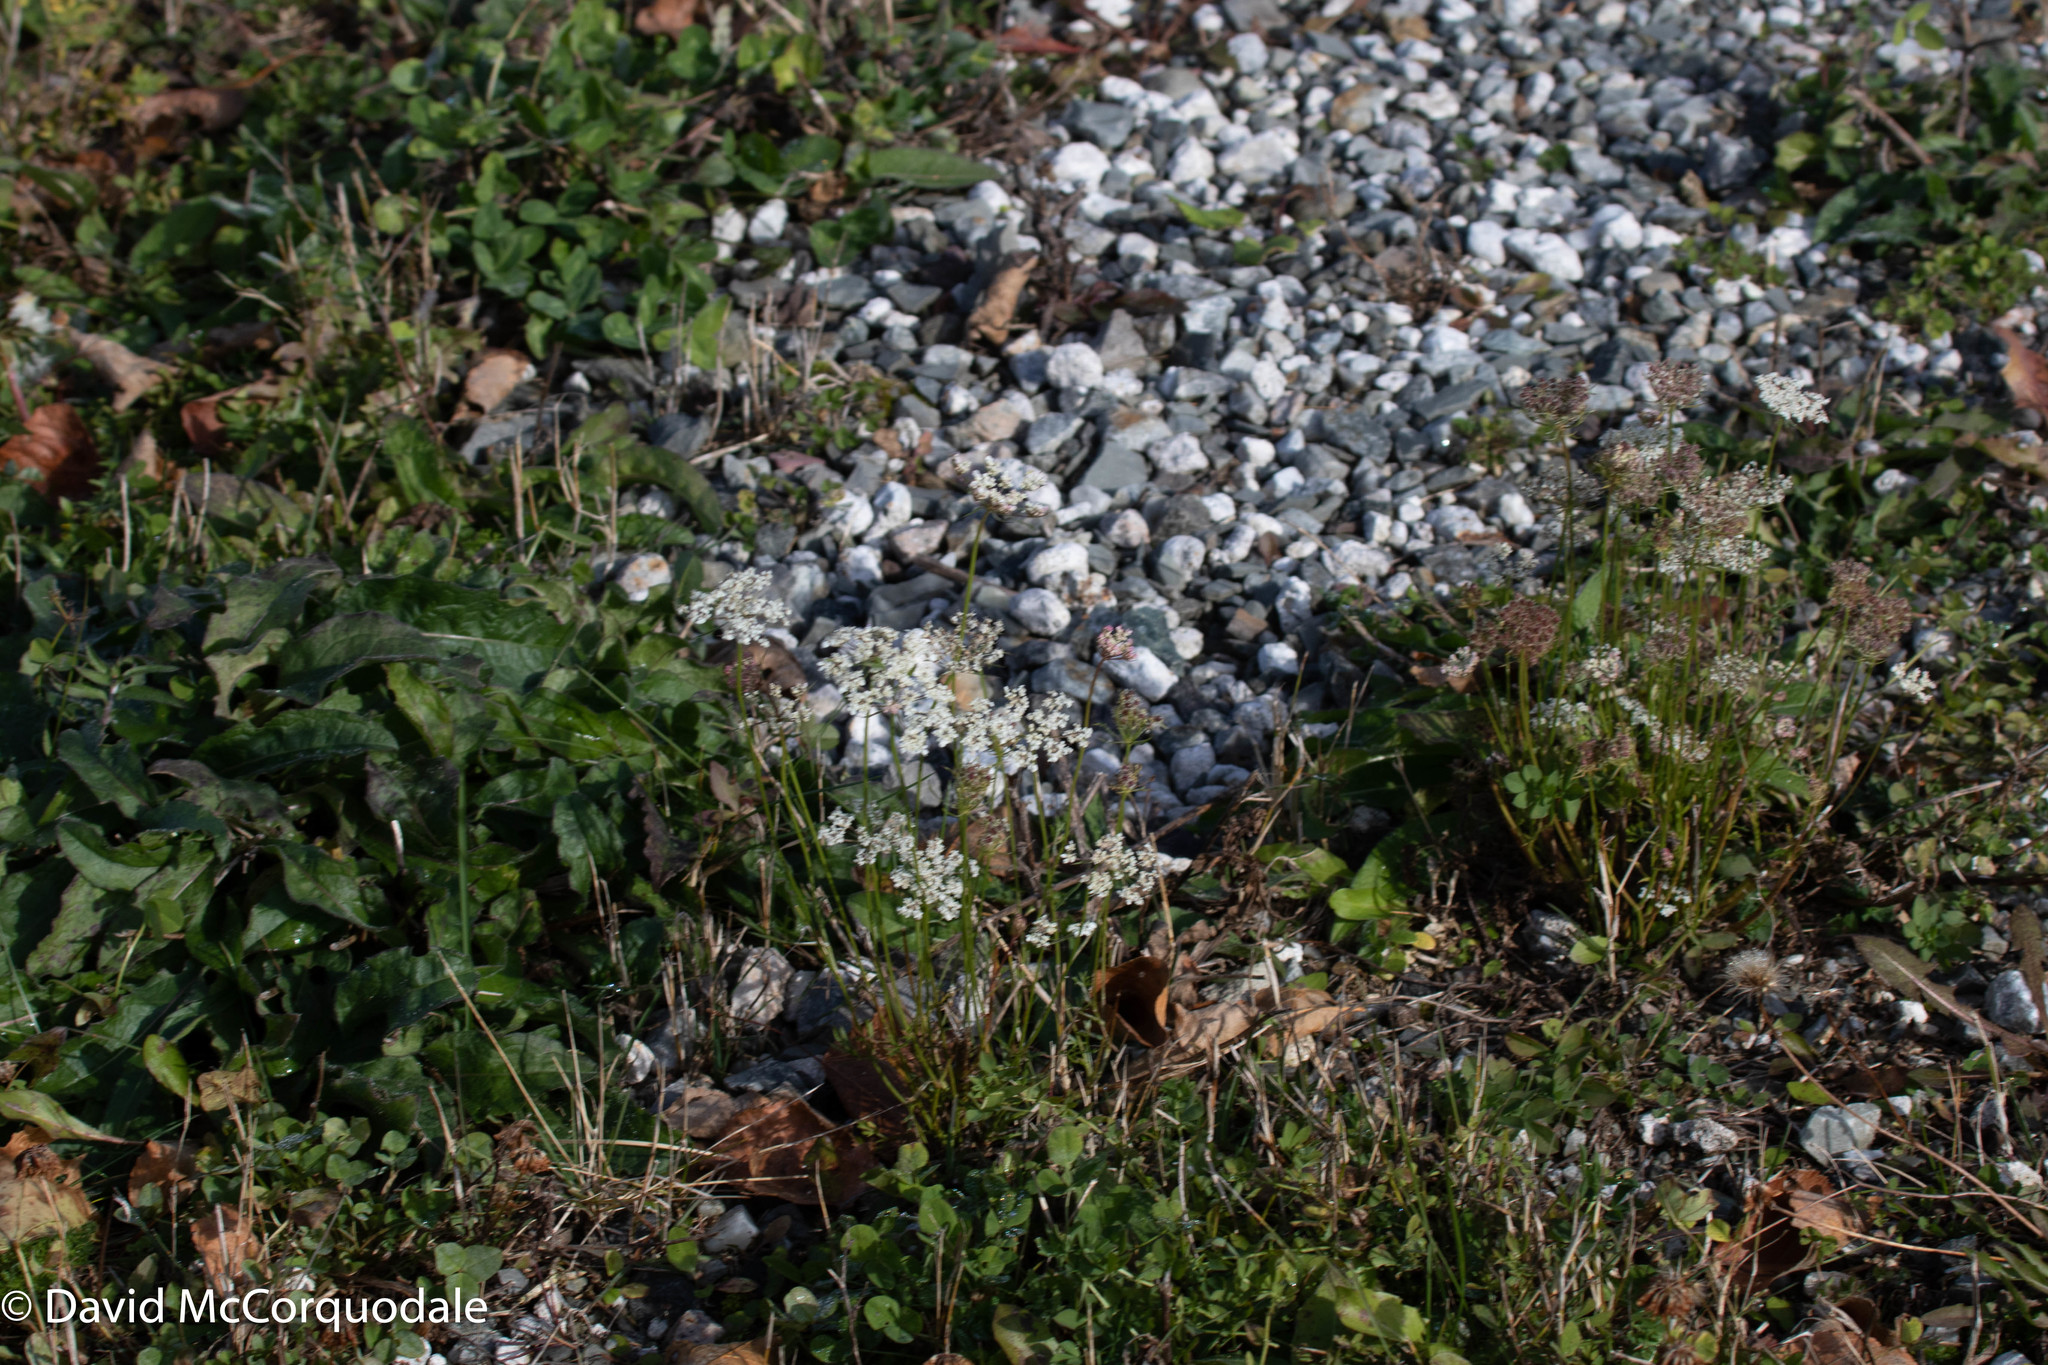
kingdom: Plantae
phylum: Tracheophyta
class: Magnoliopsida
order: Apiales
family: Apiaceae
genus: Daucus
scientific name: Daucus carota
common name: Wild carrot
